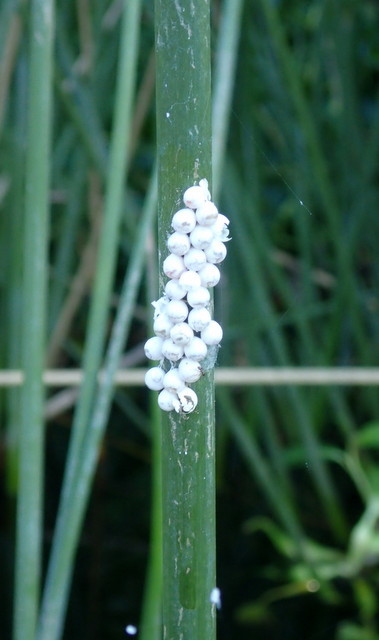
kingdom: Animalia
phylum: Mollusca
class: Gastropoda
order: Architaenioglossa
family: Ampullariidae
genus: Pomacea
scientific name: Pomacea paludosa
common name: Florida applesnail
